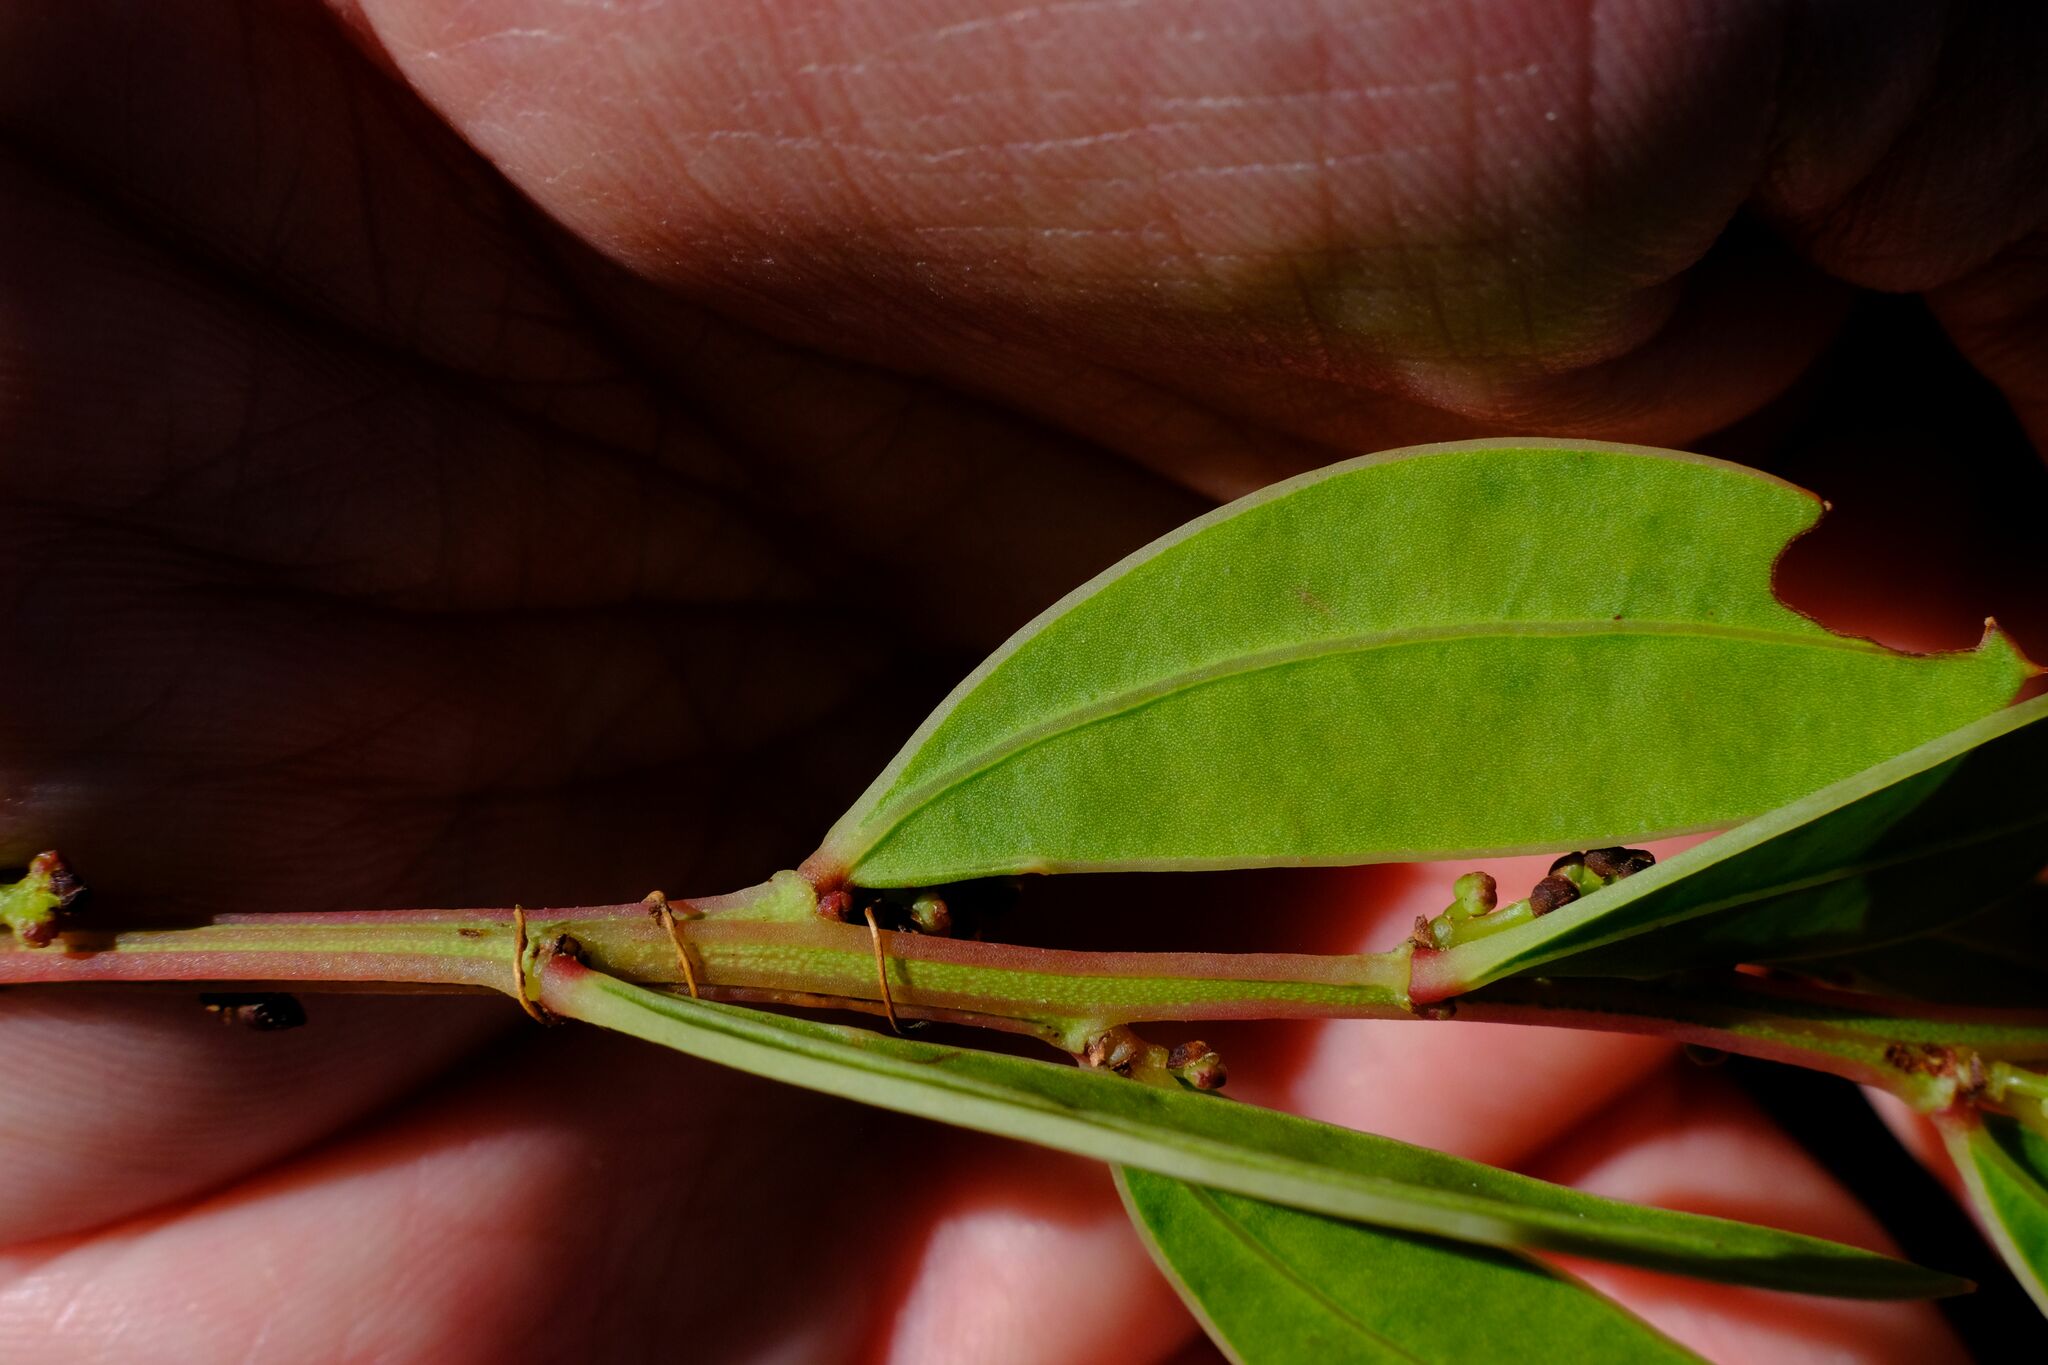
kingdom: Plantae
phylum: Tracheophyta
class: Magnoliopsida
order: Fabales
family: Fabaceae
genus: Acacia
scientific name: Acacia myrtifolia
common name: Myrtle wattle
